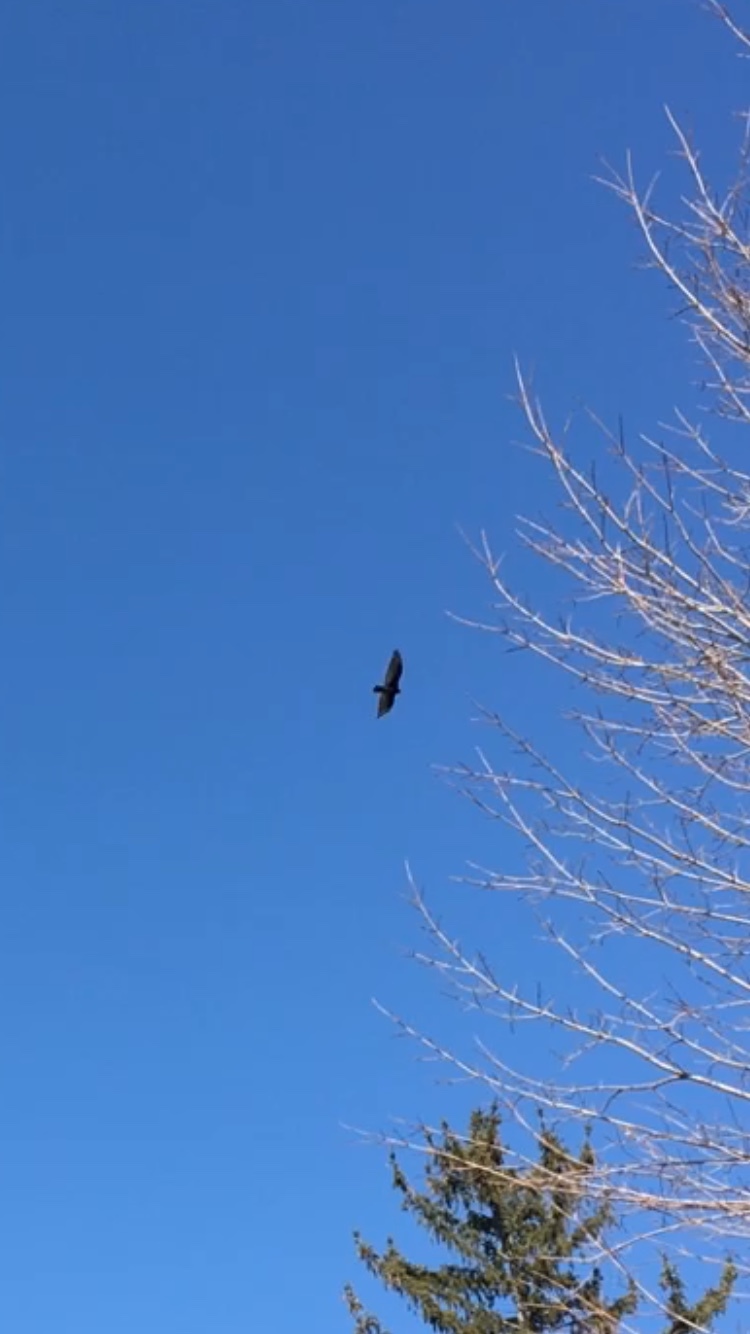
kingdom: Animalia
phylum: Chordata
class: Aves
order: Accipitriformes
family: Cathartidae
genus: Cathartes
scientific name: Cathartes aura
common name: Turkey vulture
